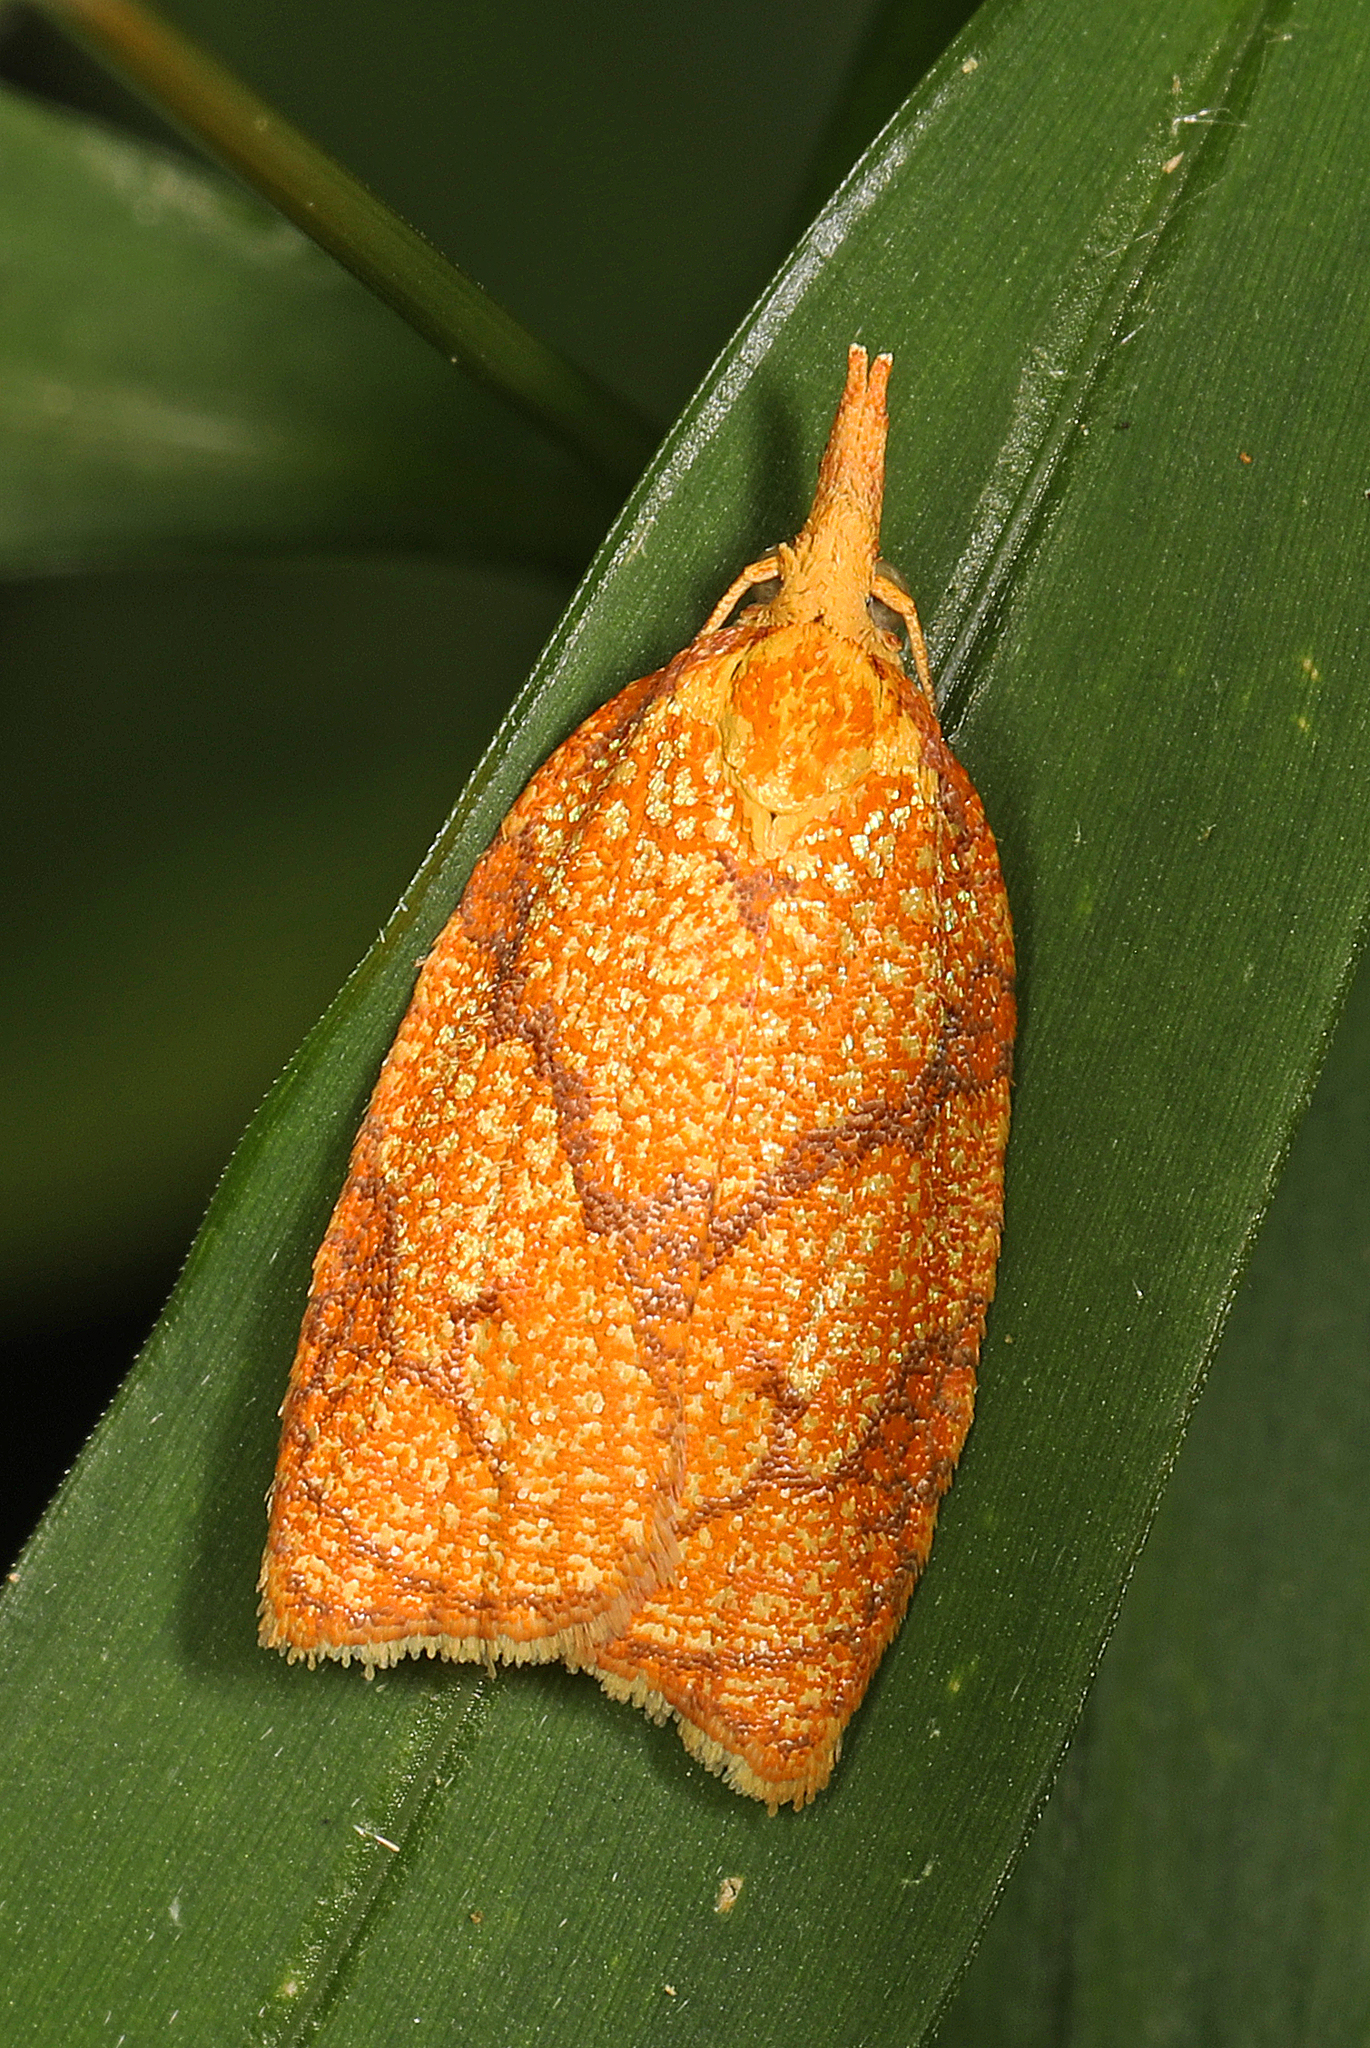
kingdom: Animalia
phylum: Arthropoda
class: Insecta
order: Lepidoptera
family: Tortricidae
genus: Cenopis
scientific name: Cenopis reticulatana
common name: Reticulated fruitworm moth
